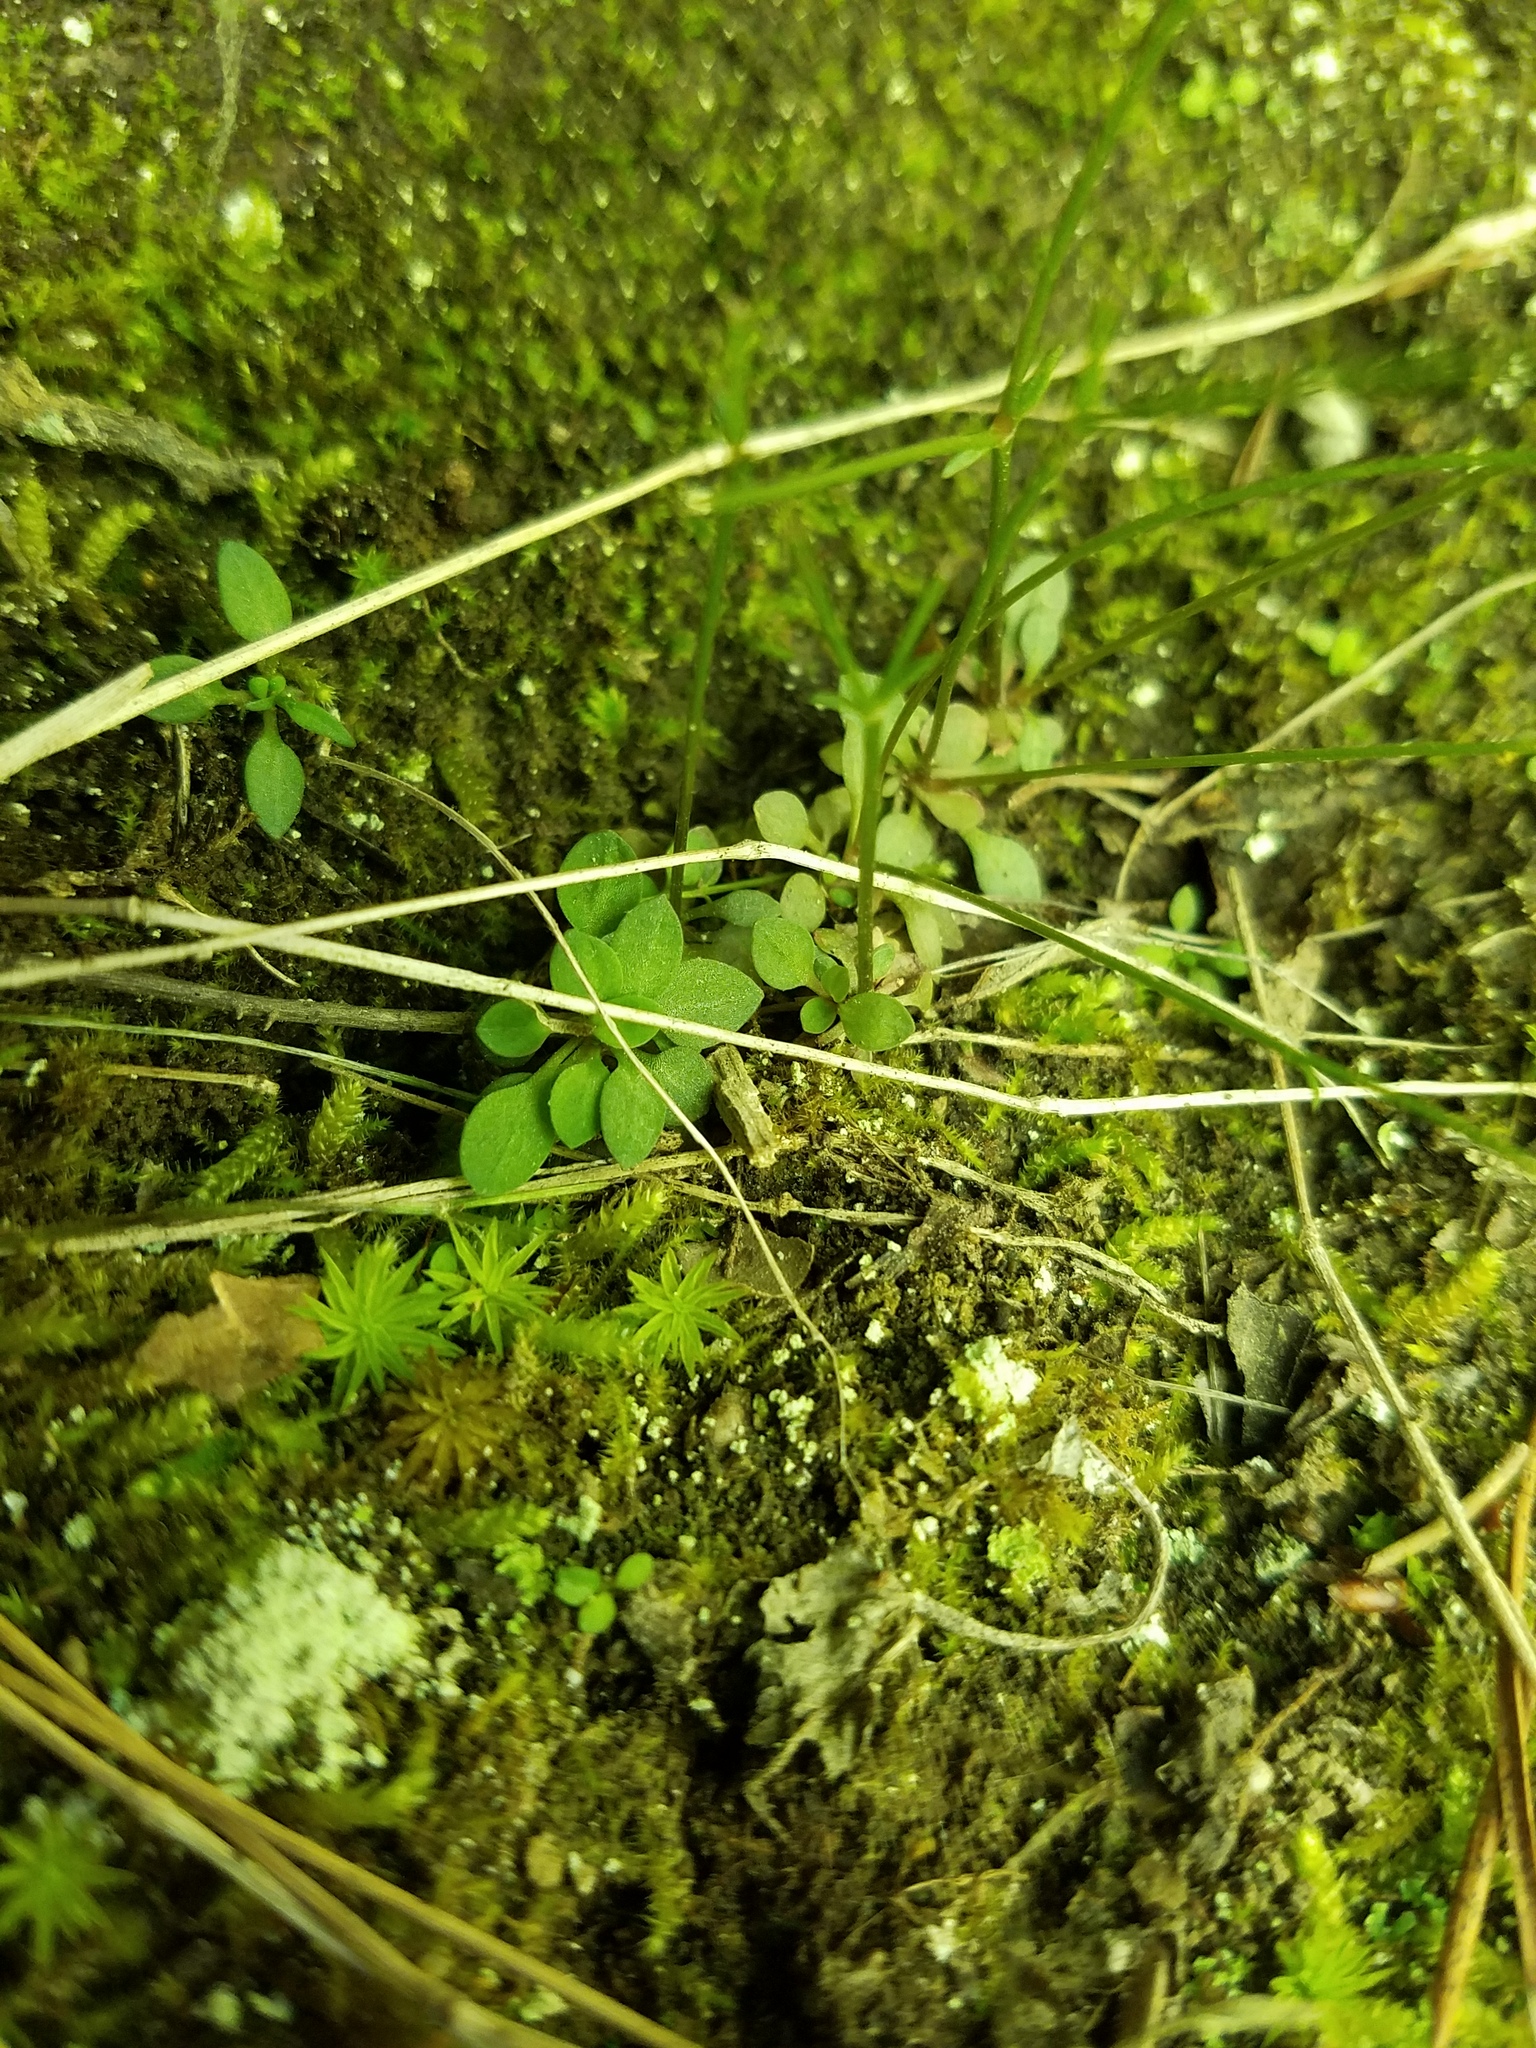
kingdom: Plantae
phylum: Tracheophyta
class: Magnoliopsida
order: Gentianales
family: Rubiaceae
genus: Houstonia
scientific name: Houstonia caerulea
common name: Bluets
